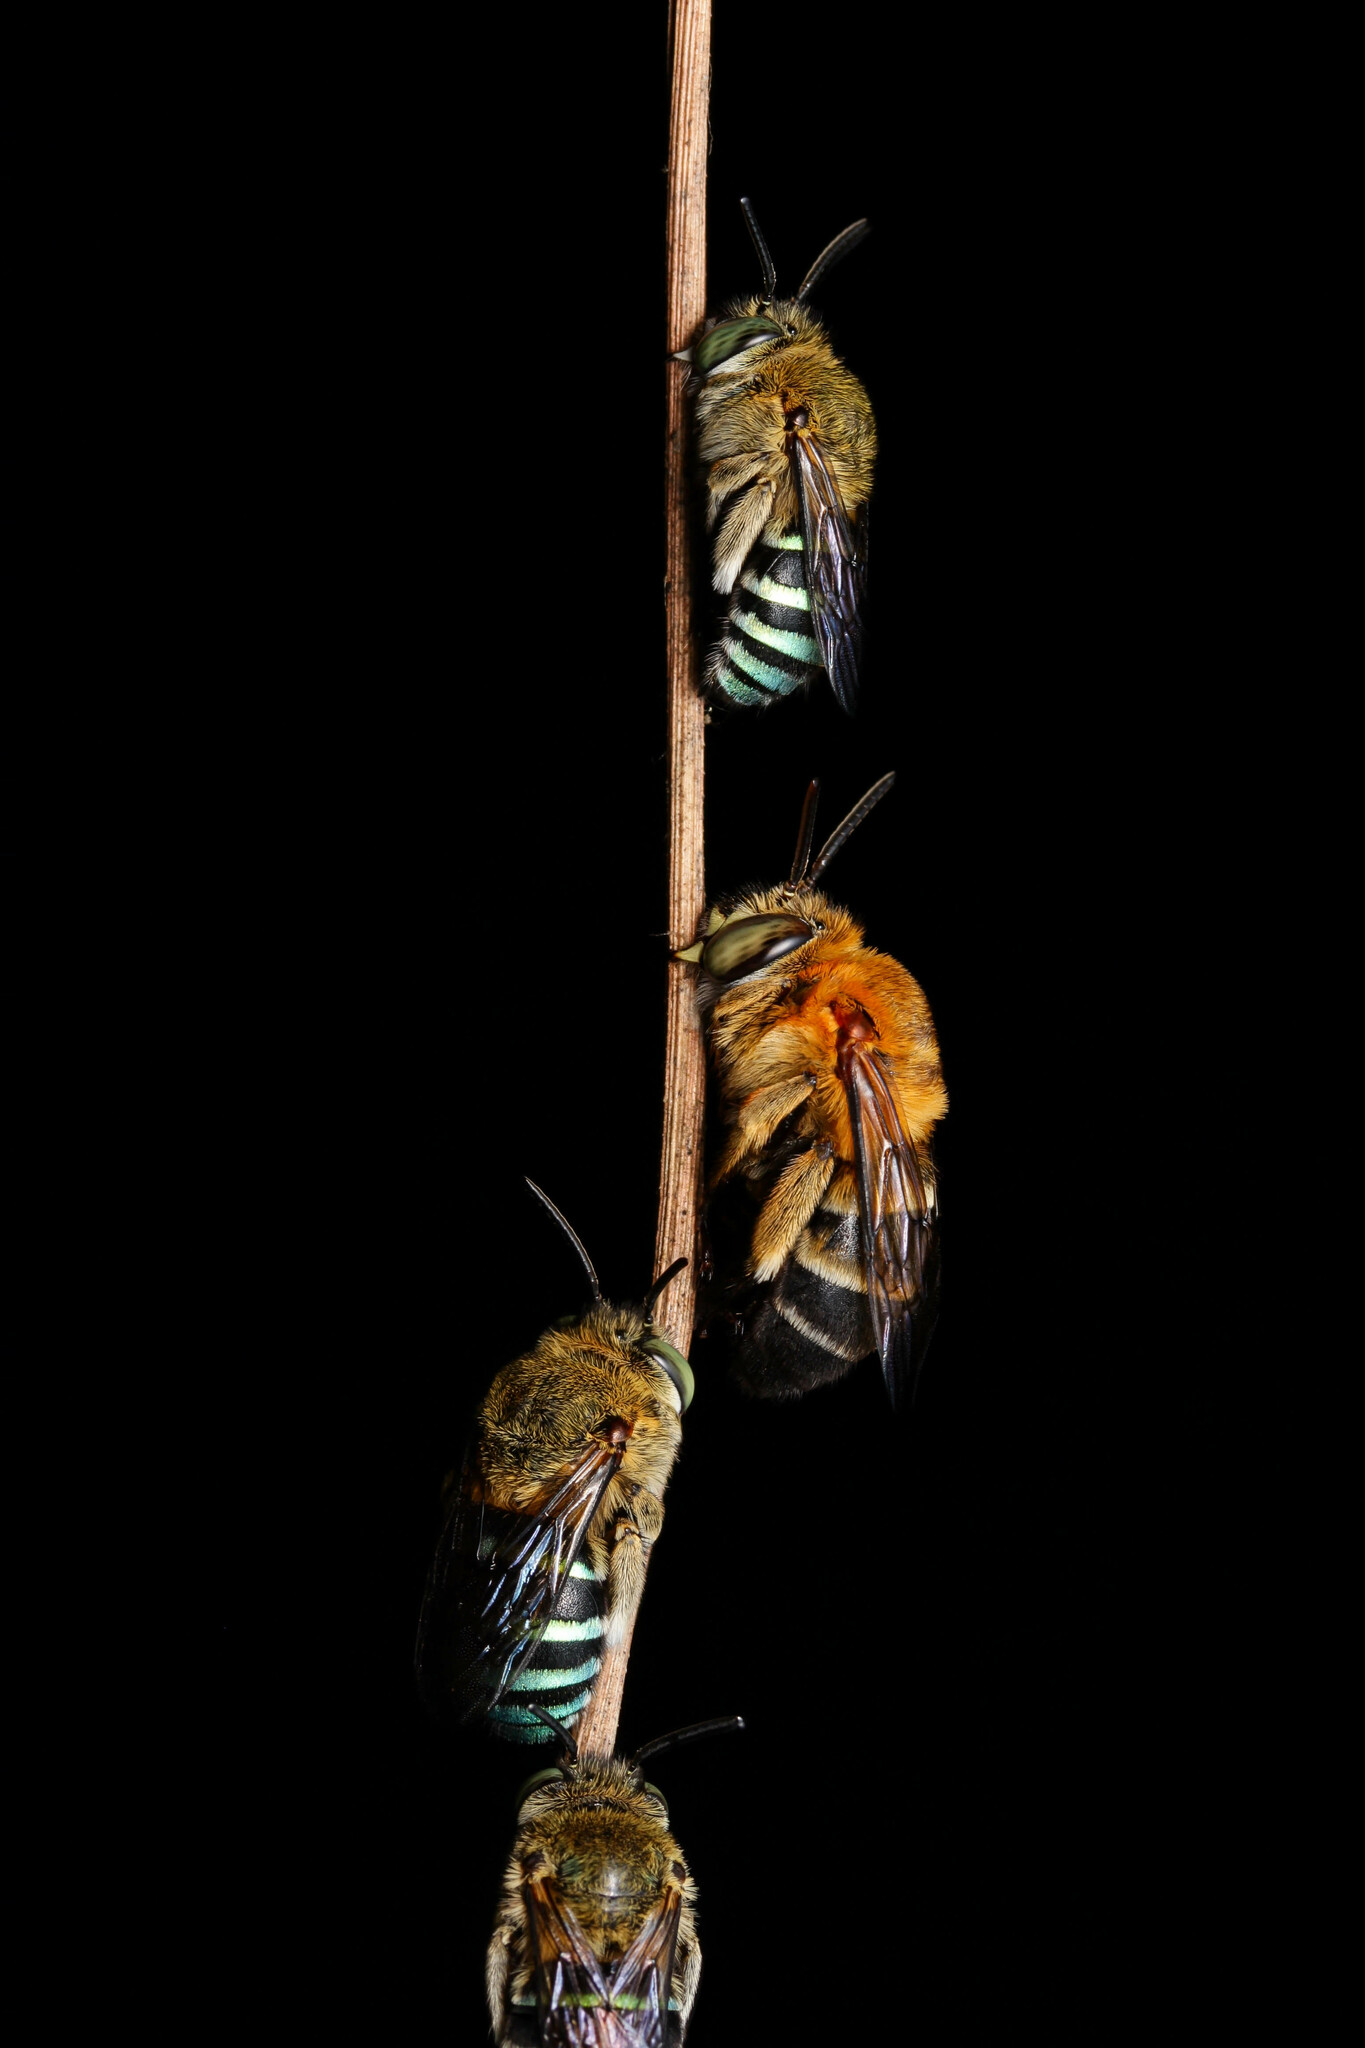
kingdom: Animalia
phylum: Arthropoda
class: Insecta
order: Hymenoptera
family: Apidae
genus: Amegilla
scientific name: Amegilla mesopyrrha
